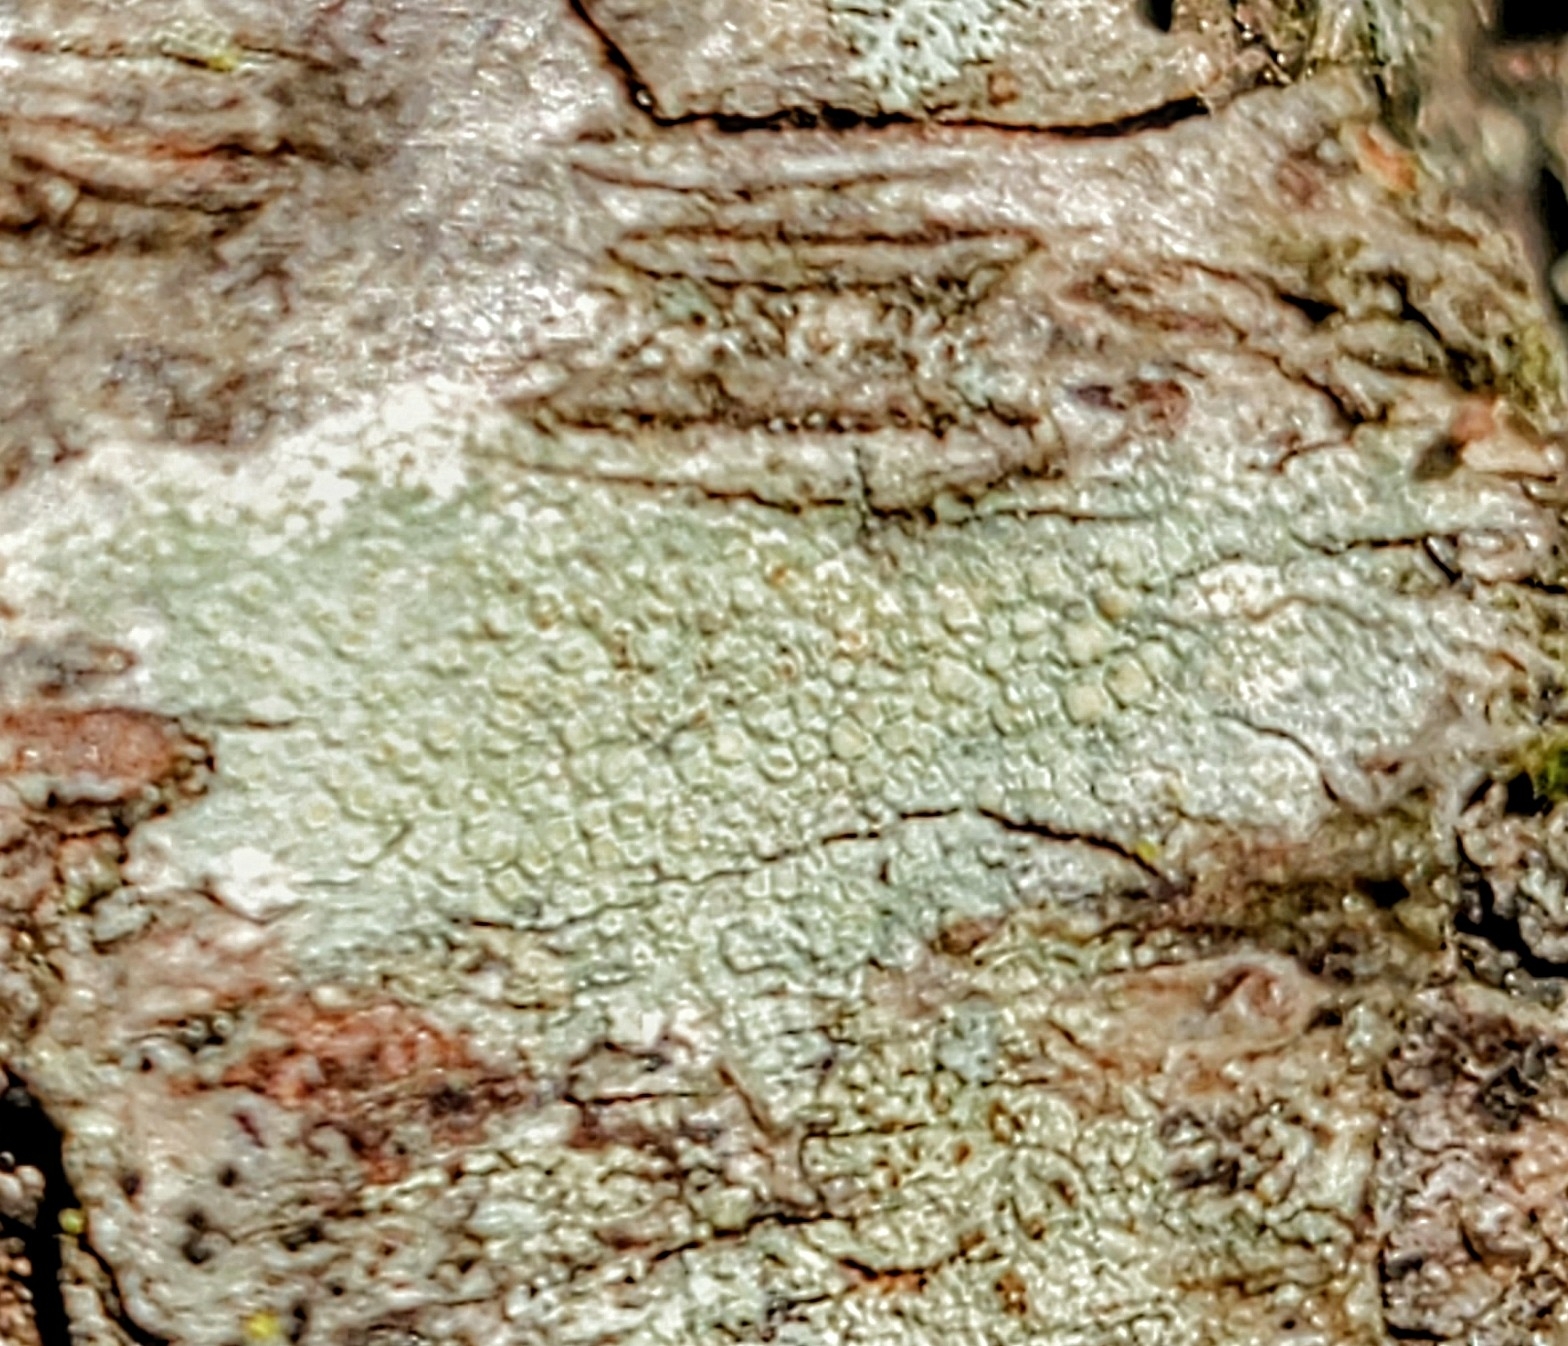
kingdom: Fungi
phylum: Ascomycota
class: Lecanoromycetes
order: Lecanorales
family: Lecanoraceae
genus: Lecanora
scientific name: Lecanora strobilina
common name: Mealy rim-lichen
